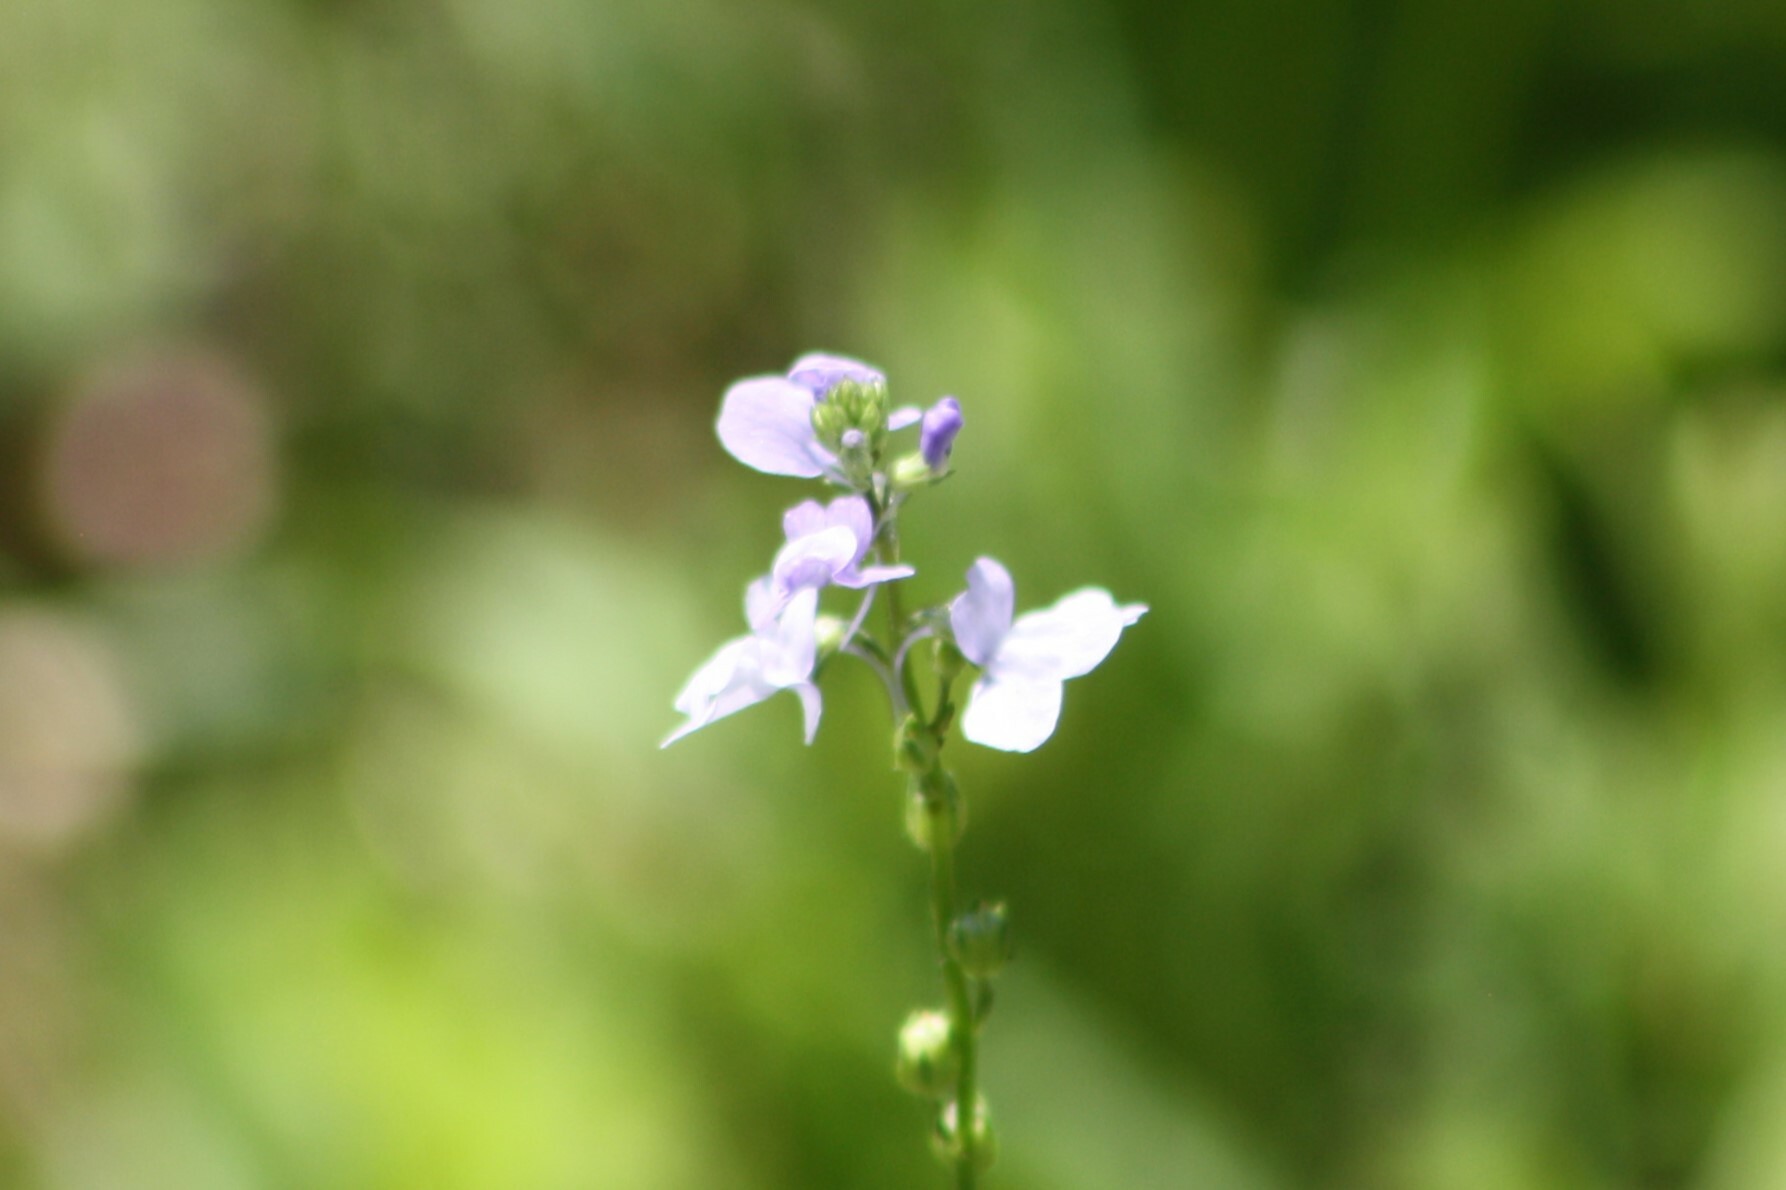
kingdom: Plantae
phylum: Tracheophyta
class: Magnoliopsida
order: Lamiales
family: Plantaginaceae
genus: Nuttallanthus
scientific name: Nuttallanthus texanus
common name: Texas toadflax
